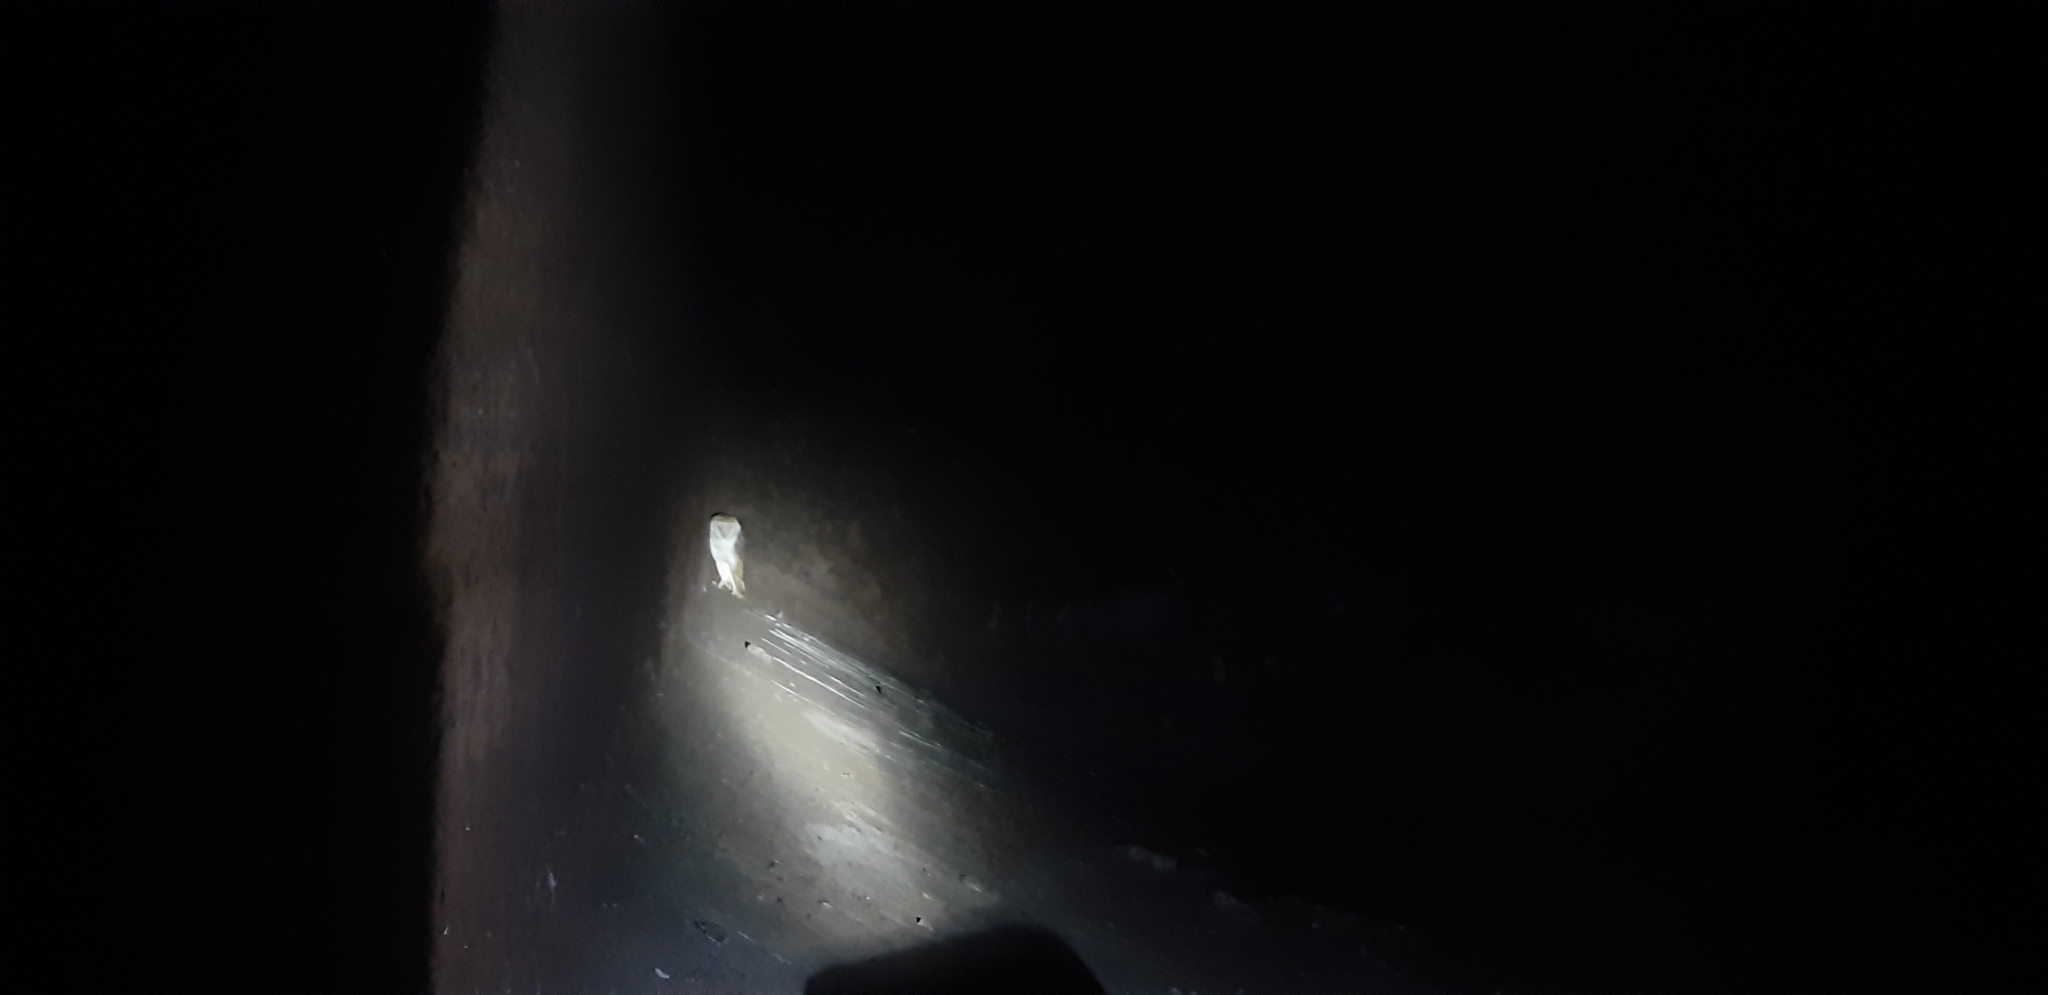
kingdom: Animalia
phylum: Chordata
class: Aves
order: Strigiformes
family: Tytonidae
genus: Tyto
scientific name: Tyto alba
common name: Barn owl
